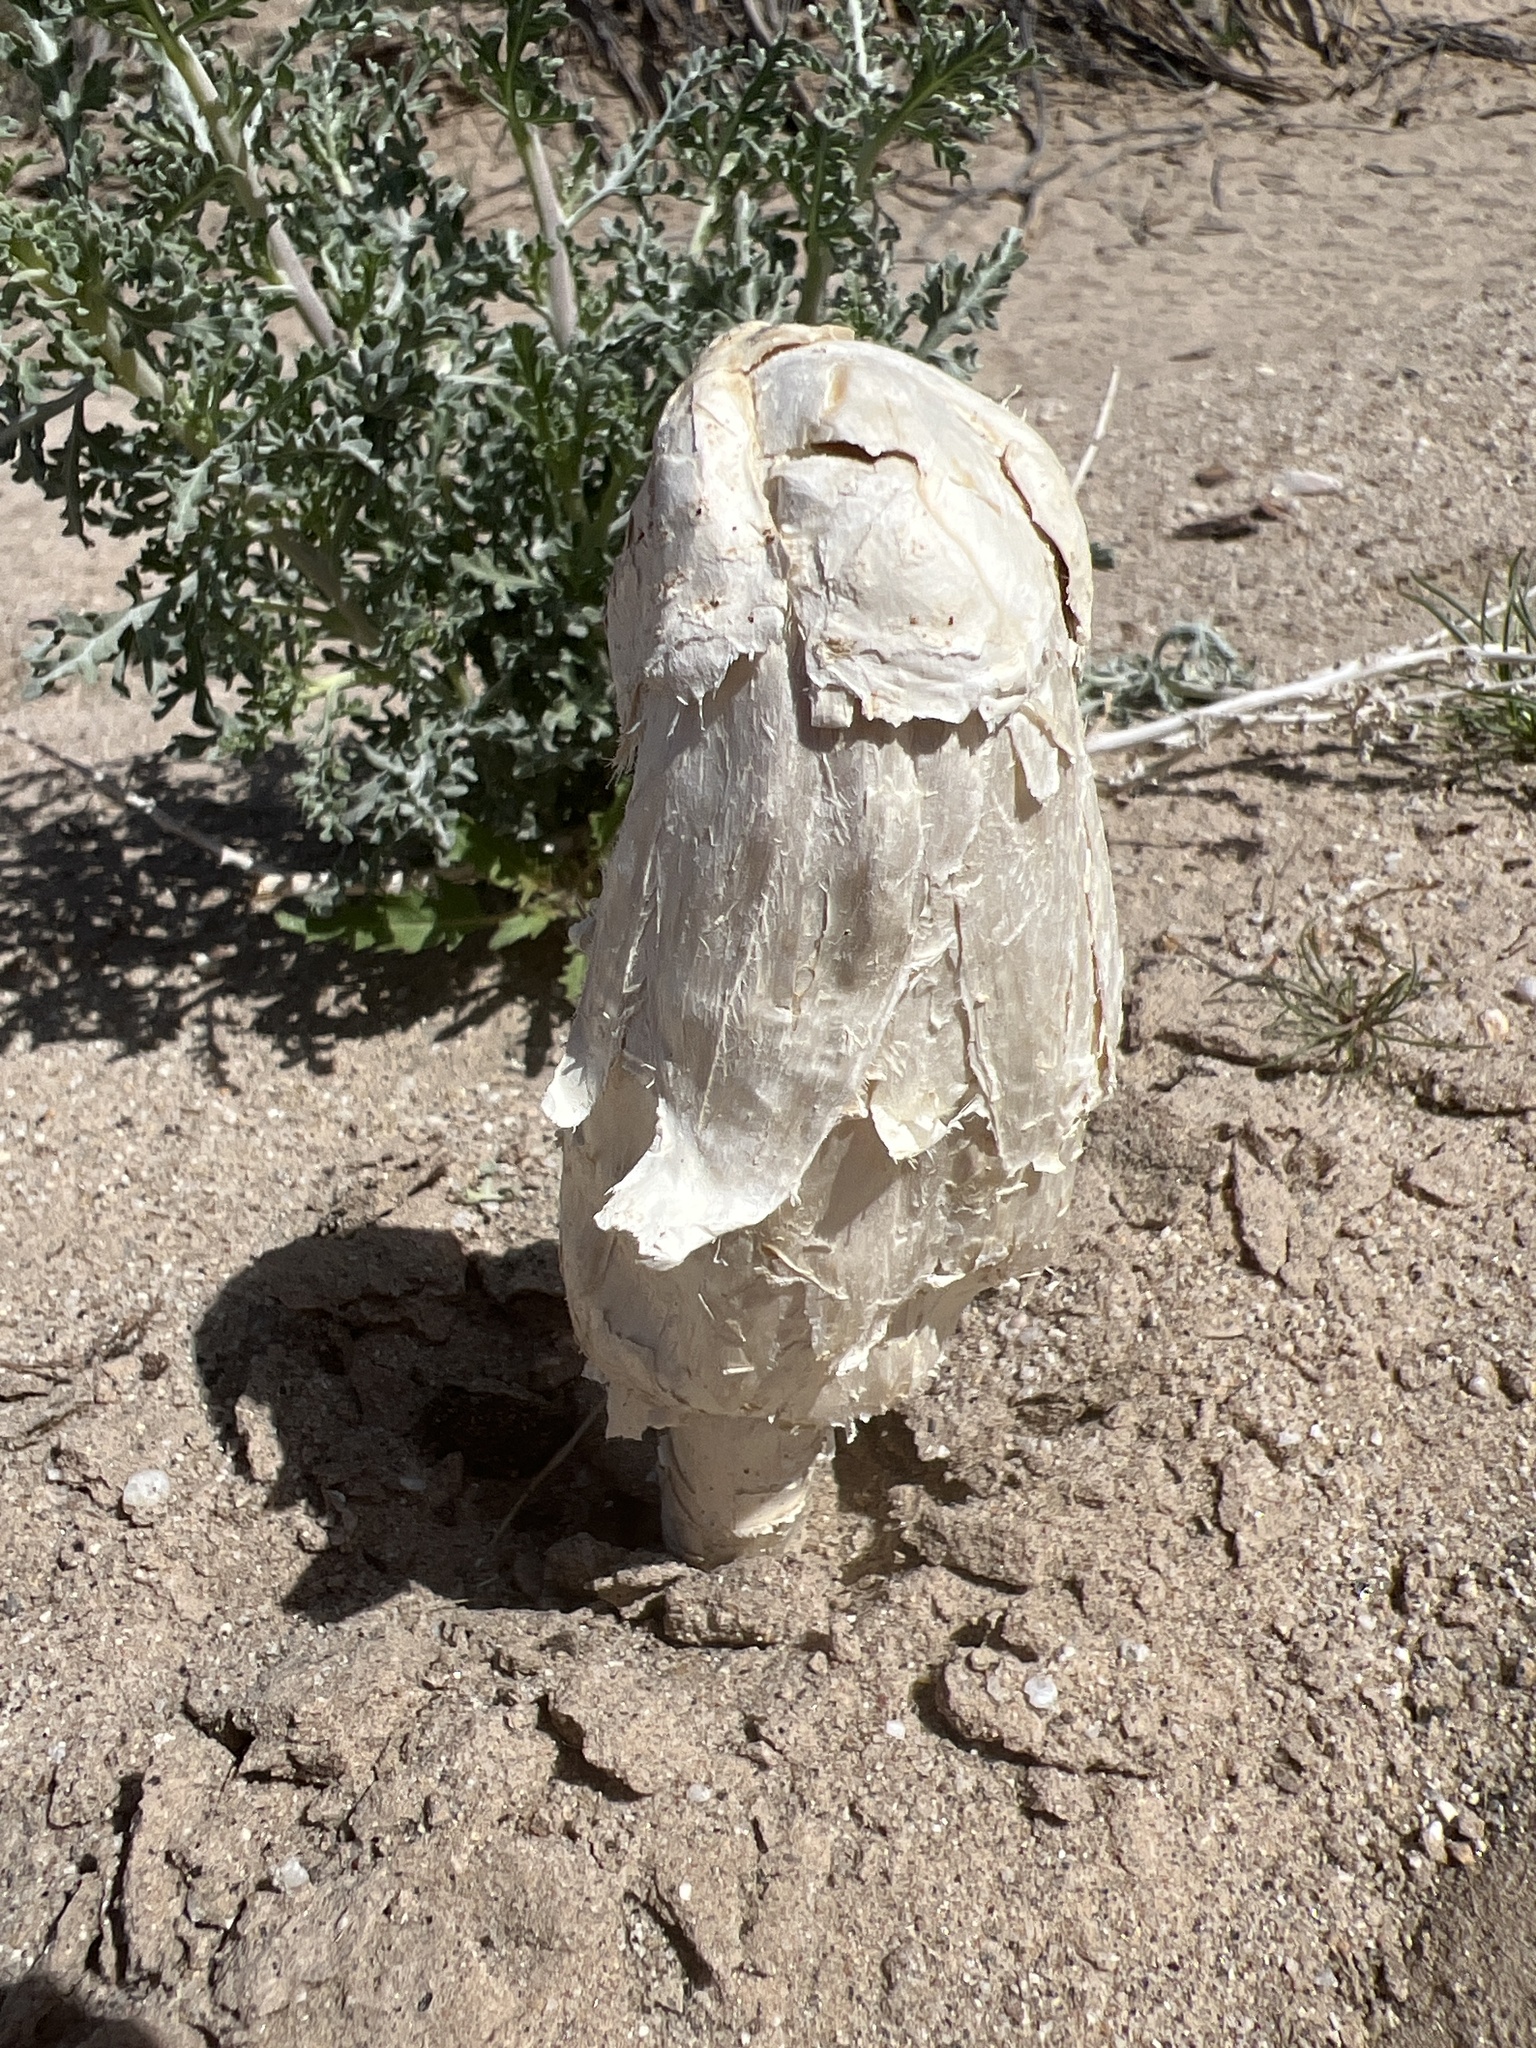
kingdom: Fungi
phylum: Basidiomycota
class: Agaricomycetes
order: Agaricales
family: Agaricaceae
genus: Podaxis
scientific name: Podaxis pistillaris
